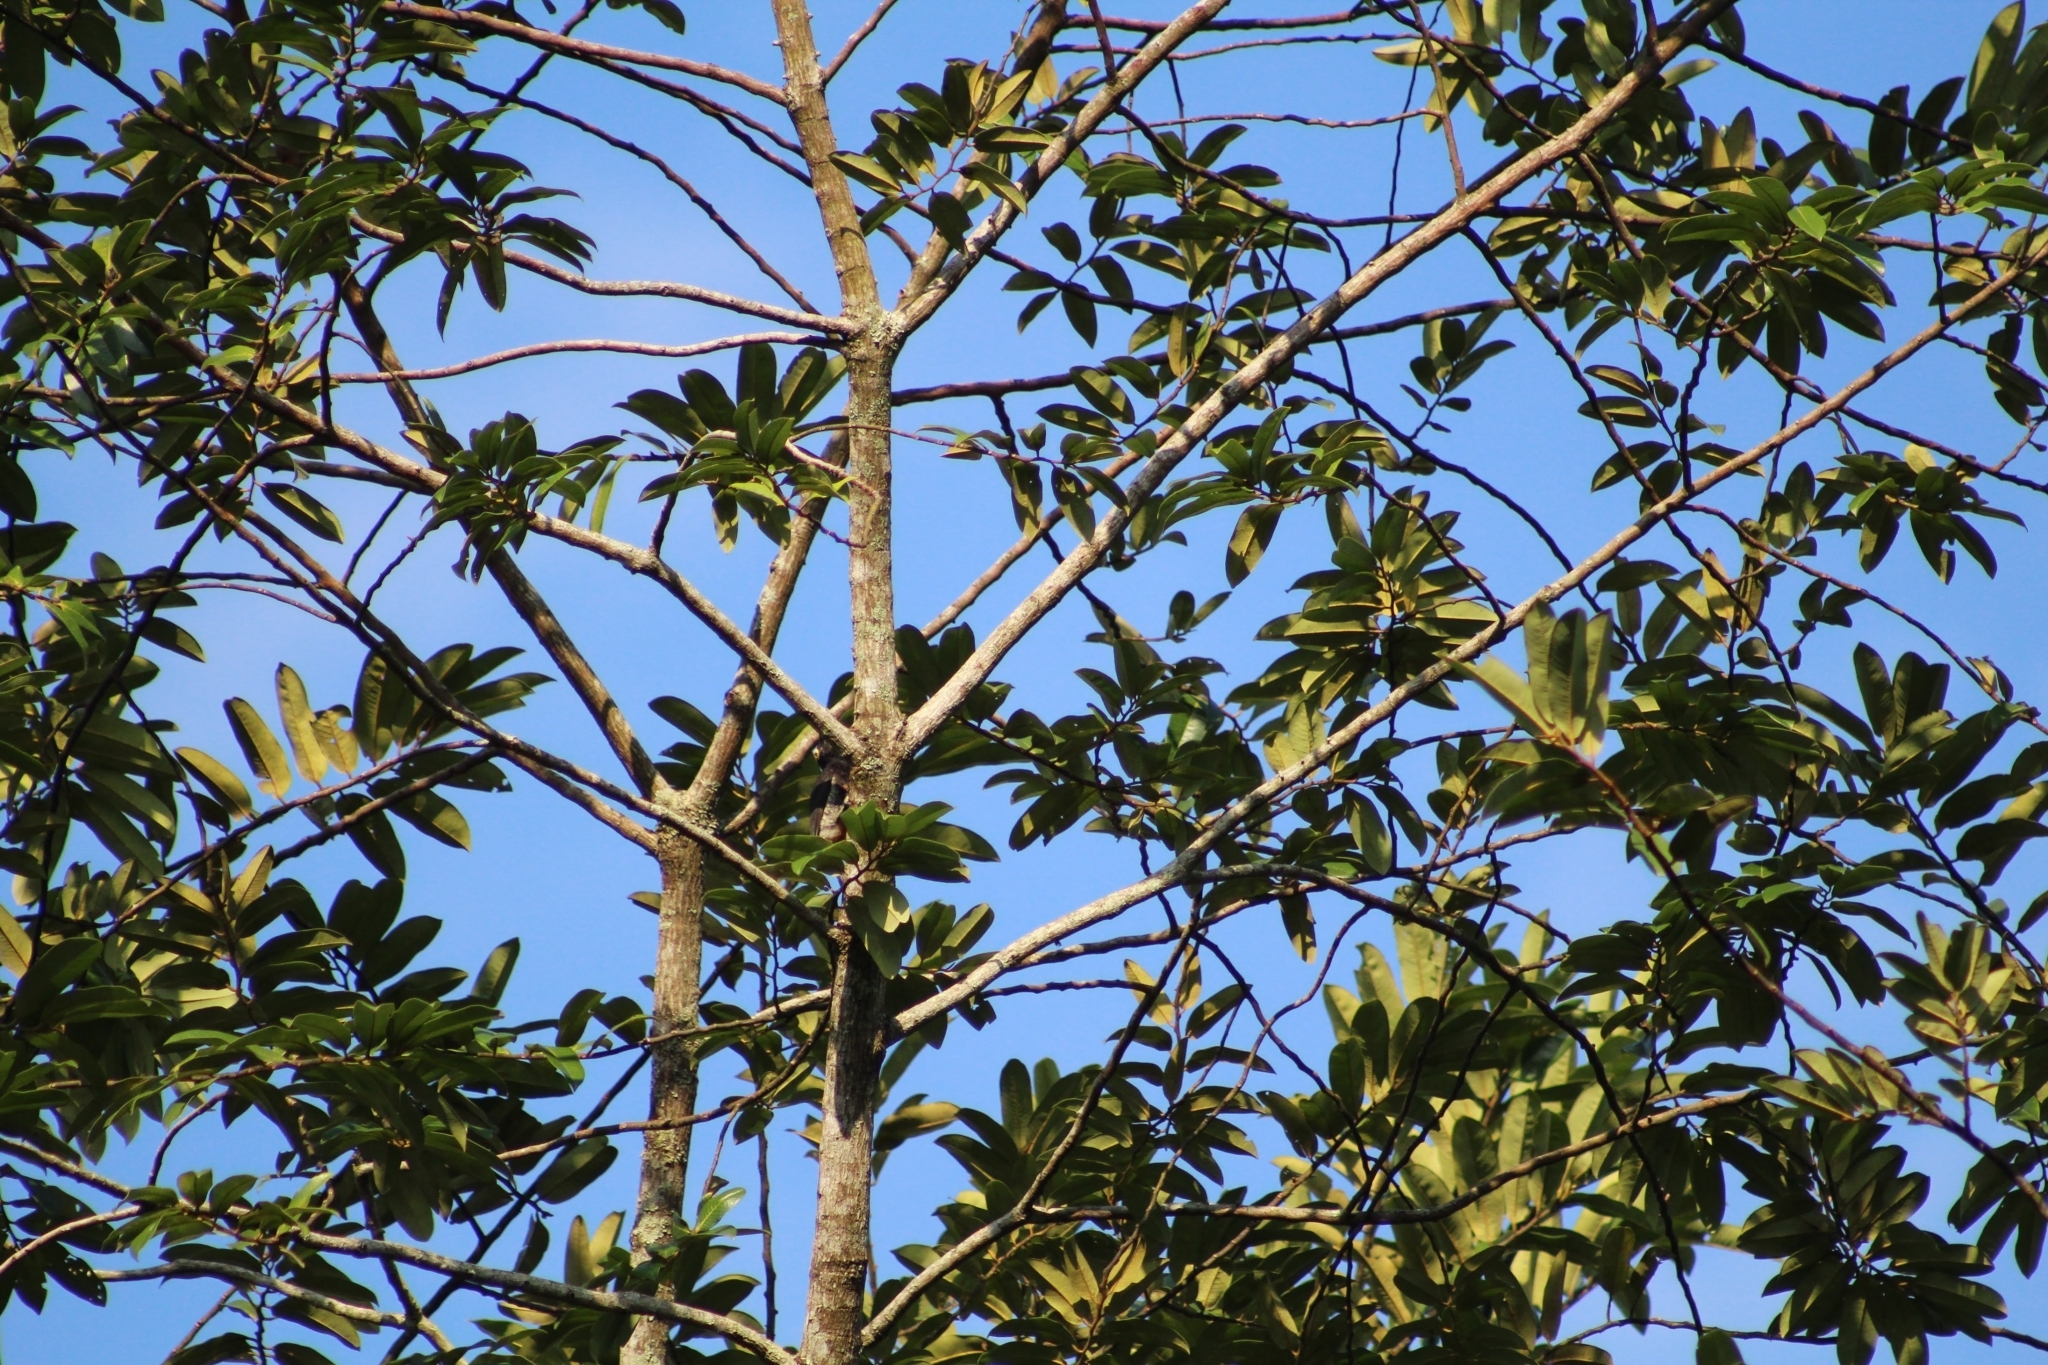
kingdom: Animalia
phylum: Chordata
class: Aves
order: Piciformes
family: Picidae
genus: Melanerpes
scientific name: Melanerpes cruentatus
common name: Yellow-tufted woodpecker
